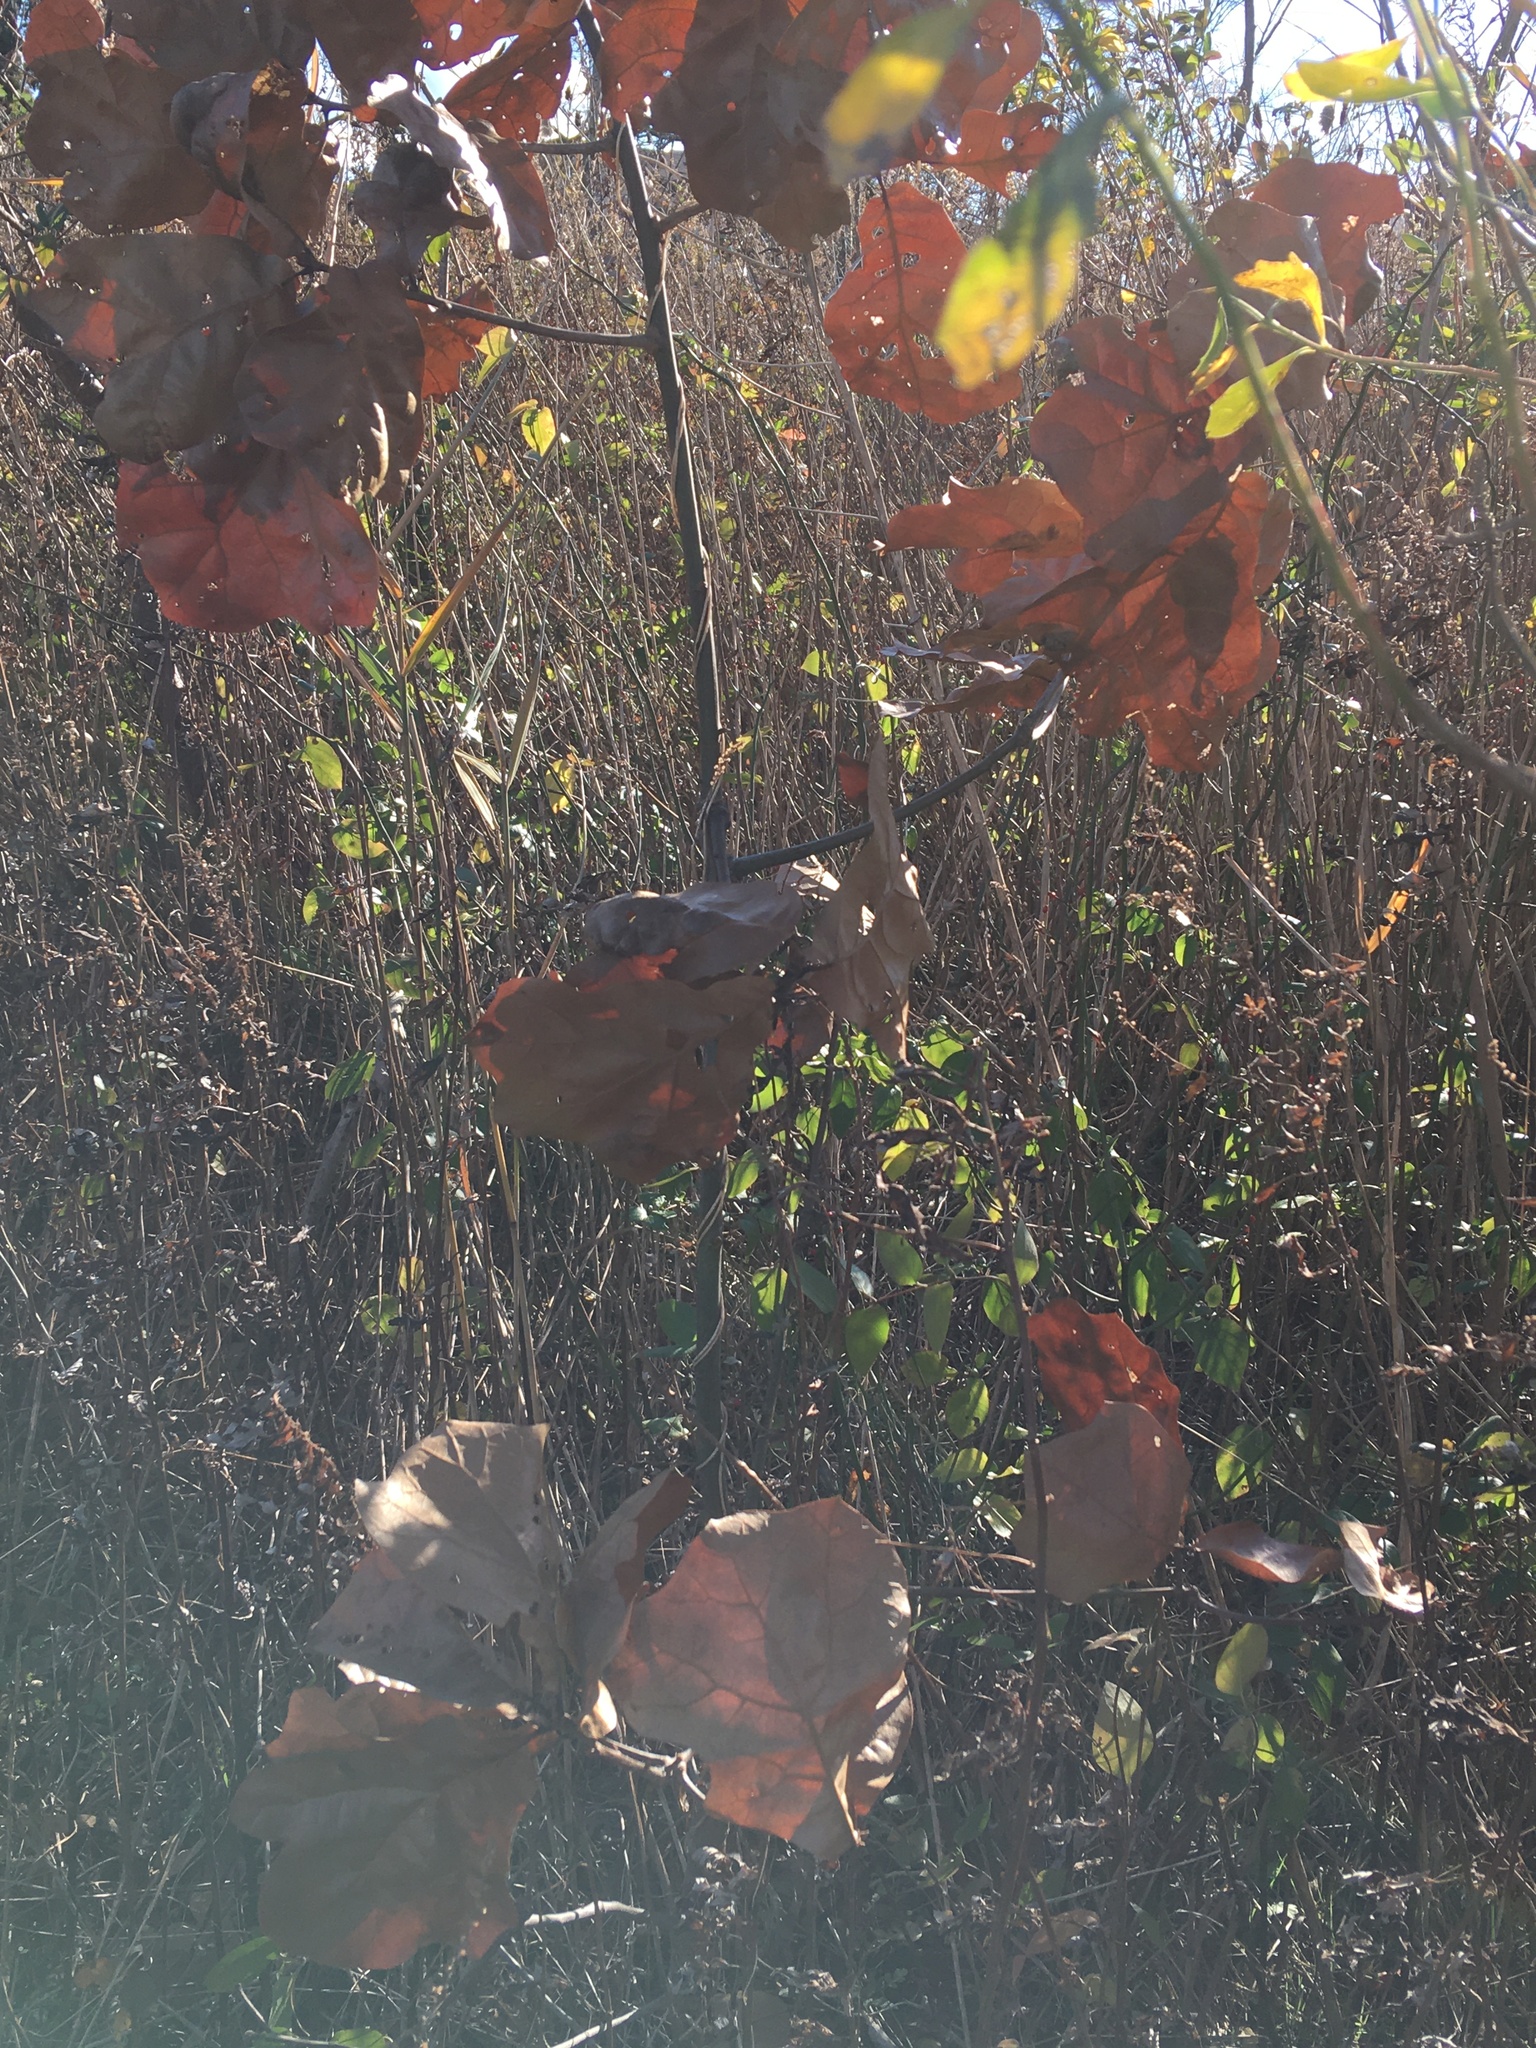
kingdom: Plantae
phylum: Tracheophyta
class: Magnoliopsida
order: Fagales
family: Fagaceae
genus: Quercus
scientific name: Quercus marilandica
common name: Blackjack oak
